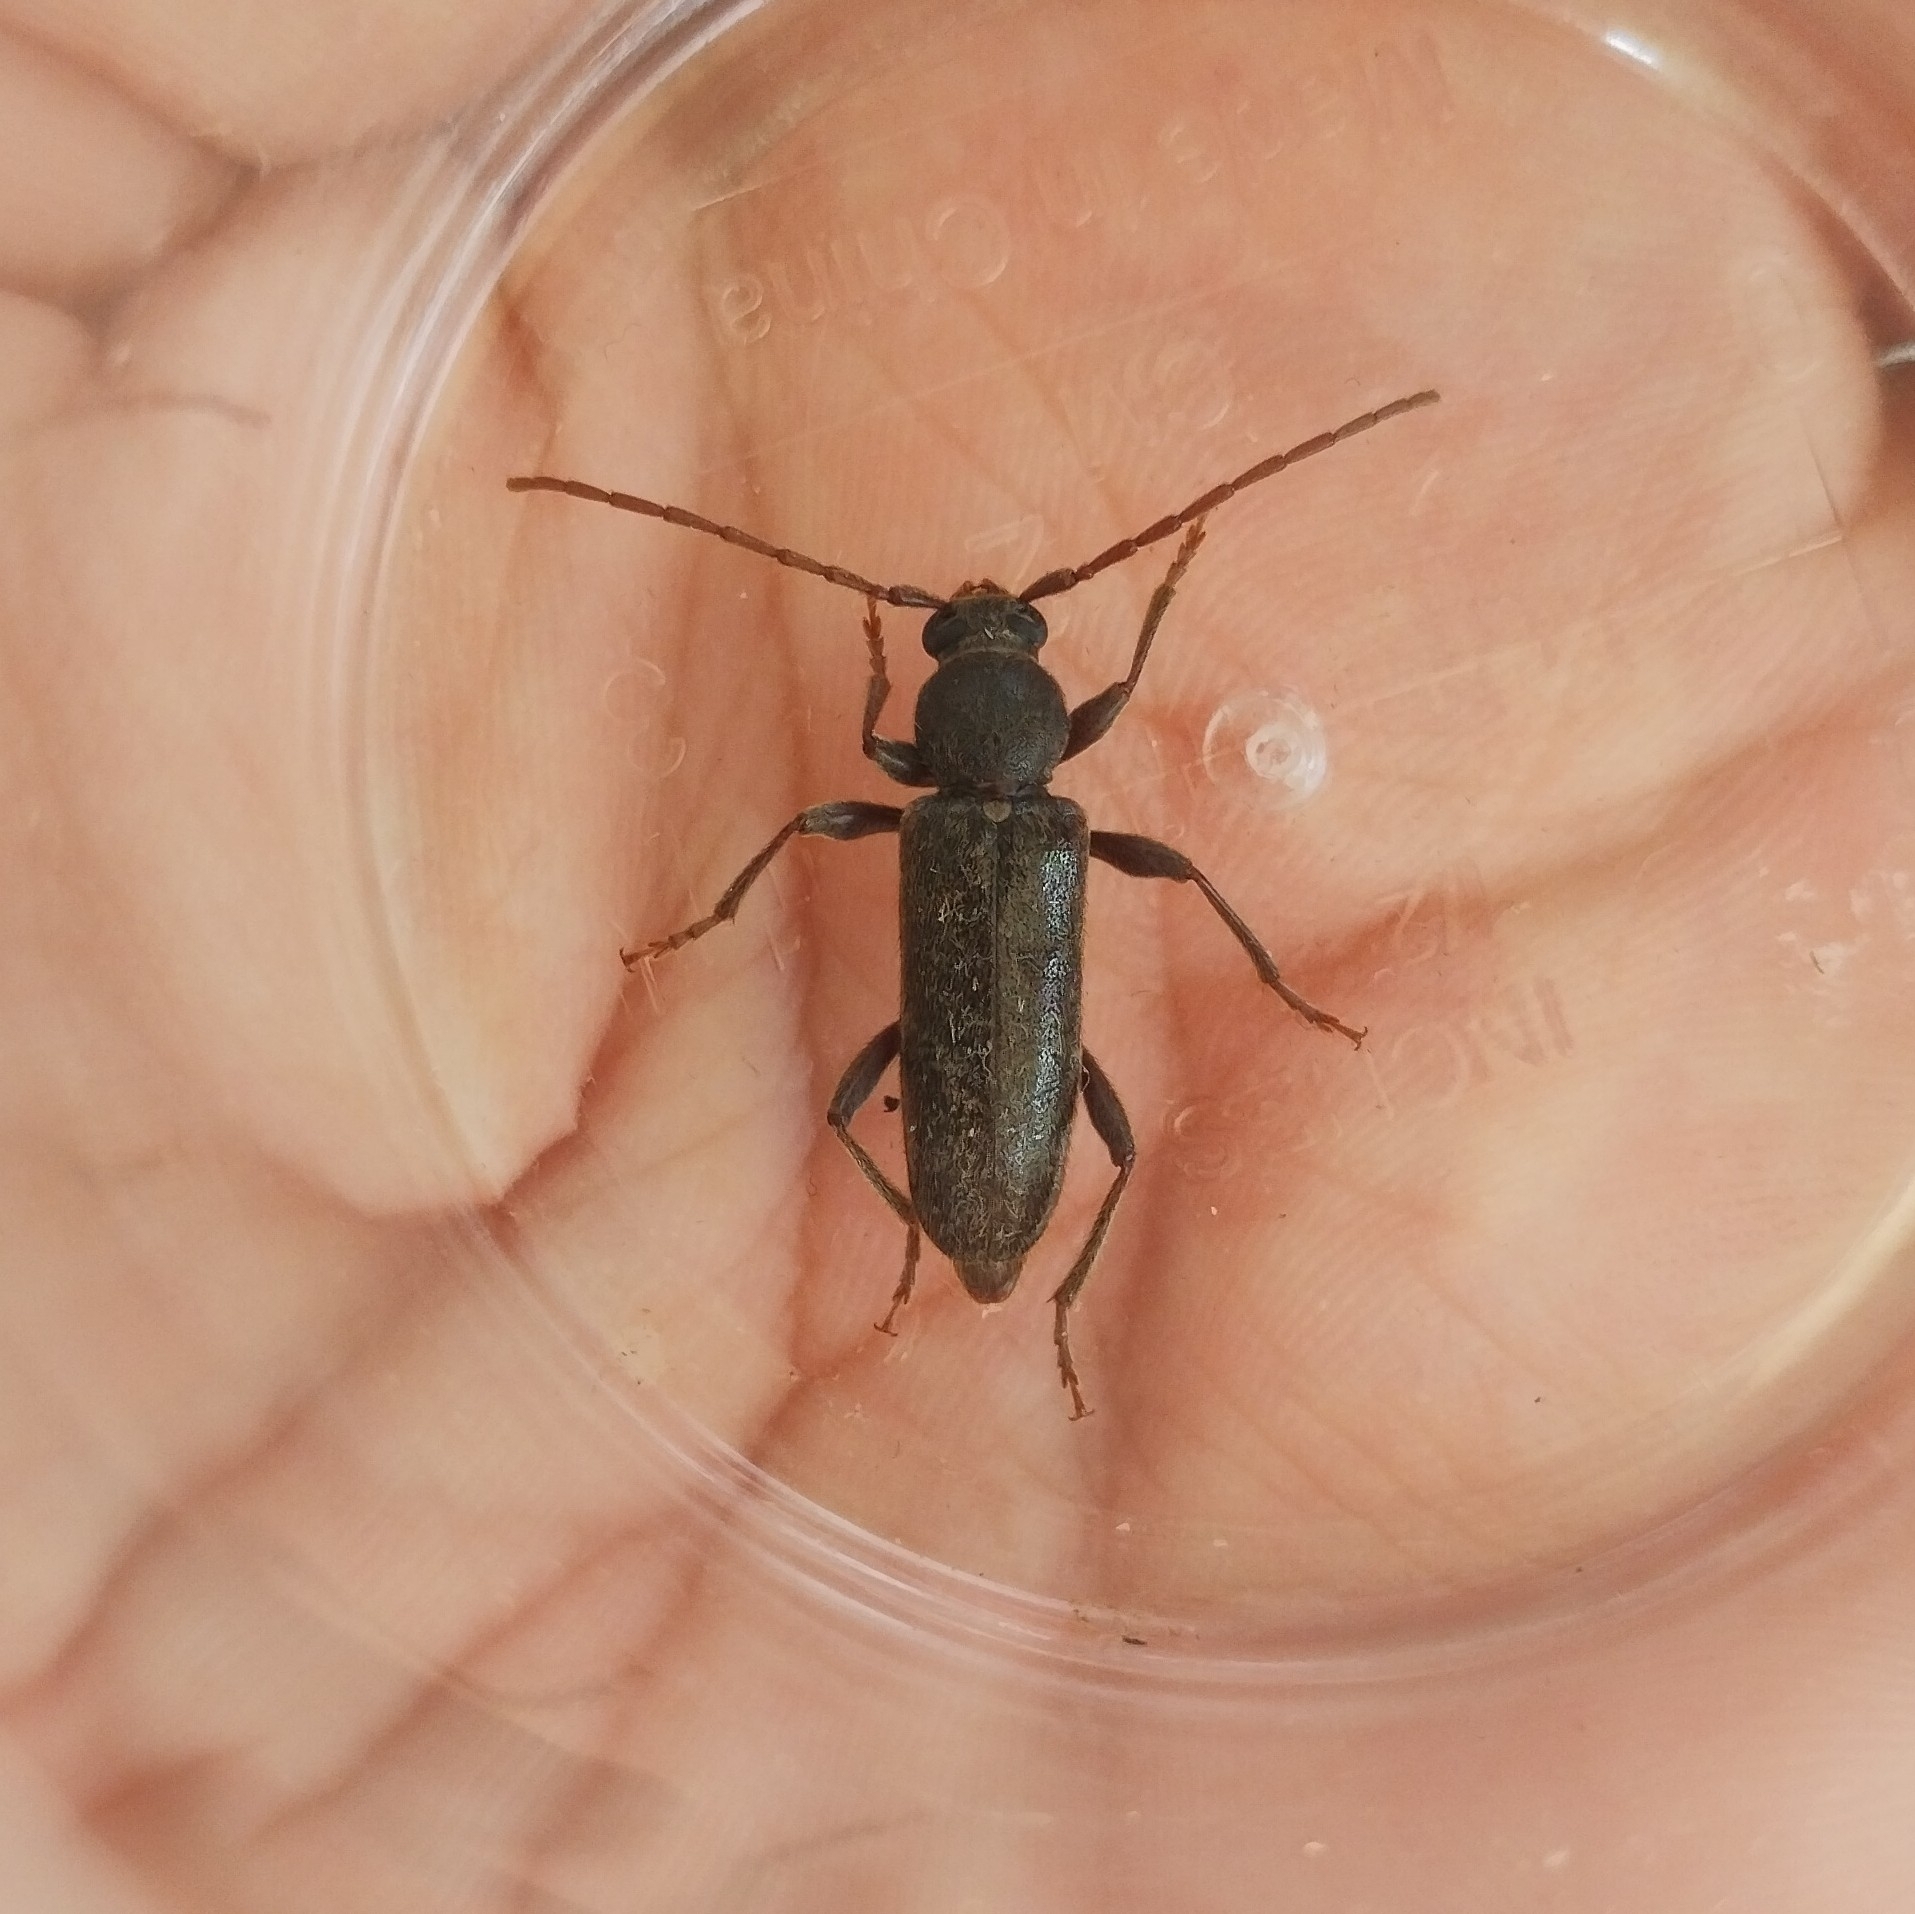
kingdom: Animalia
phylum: Arthropoda
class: Insecta
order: Coleoptera
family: Cerambycidae
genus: Trichoferus
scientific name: Trichoferus campestris
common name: Velvet long horned beetle
